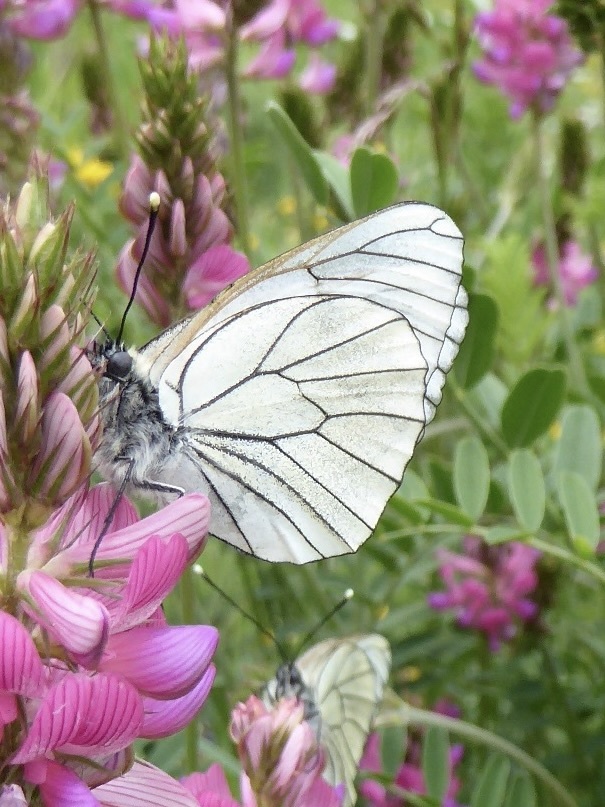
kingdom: Animalia
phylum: Arthropoda
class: Insecta
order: Lepidoptera
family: Pieridae
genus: Aporia
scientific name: Aporia crataegi
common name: Black-veined white
